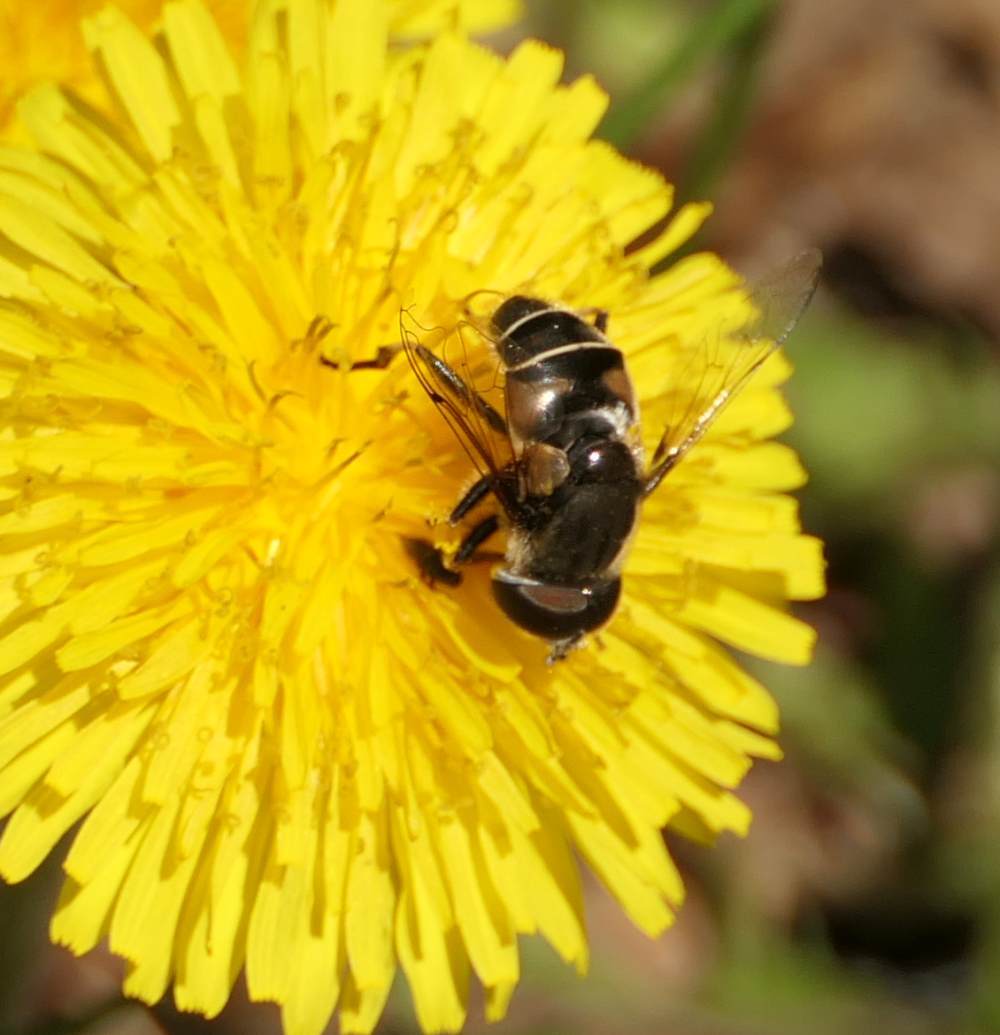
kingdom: Animalia
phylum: Arthropoda
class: Insecta
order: Diptera
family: Syrphidae
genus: Eristalis
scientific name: Eristalis dimidiata
